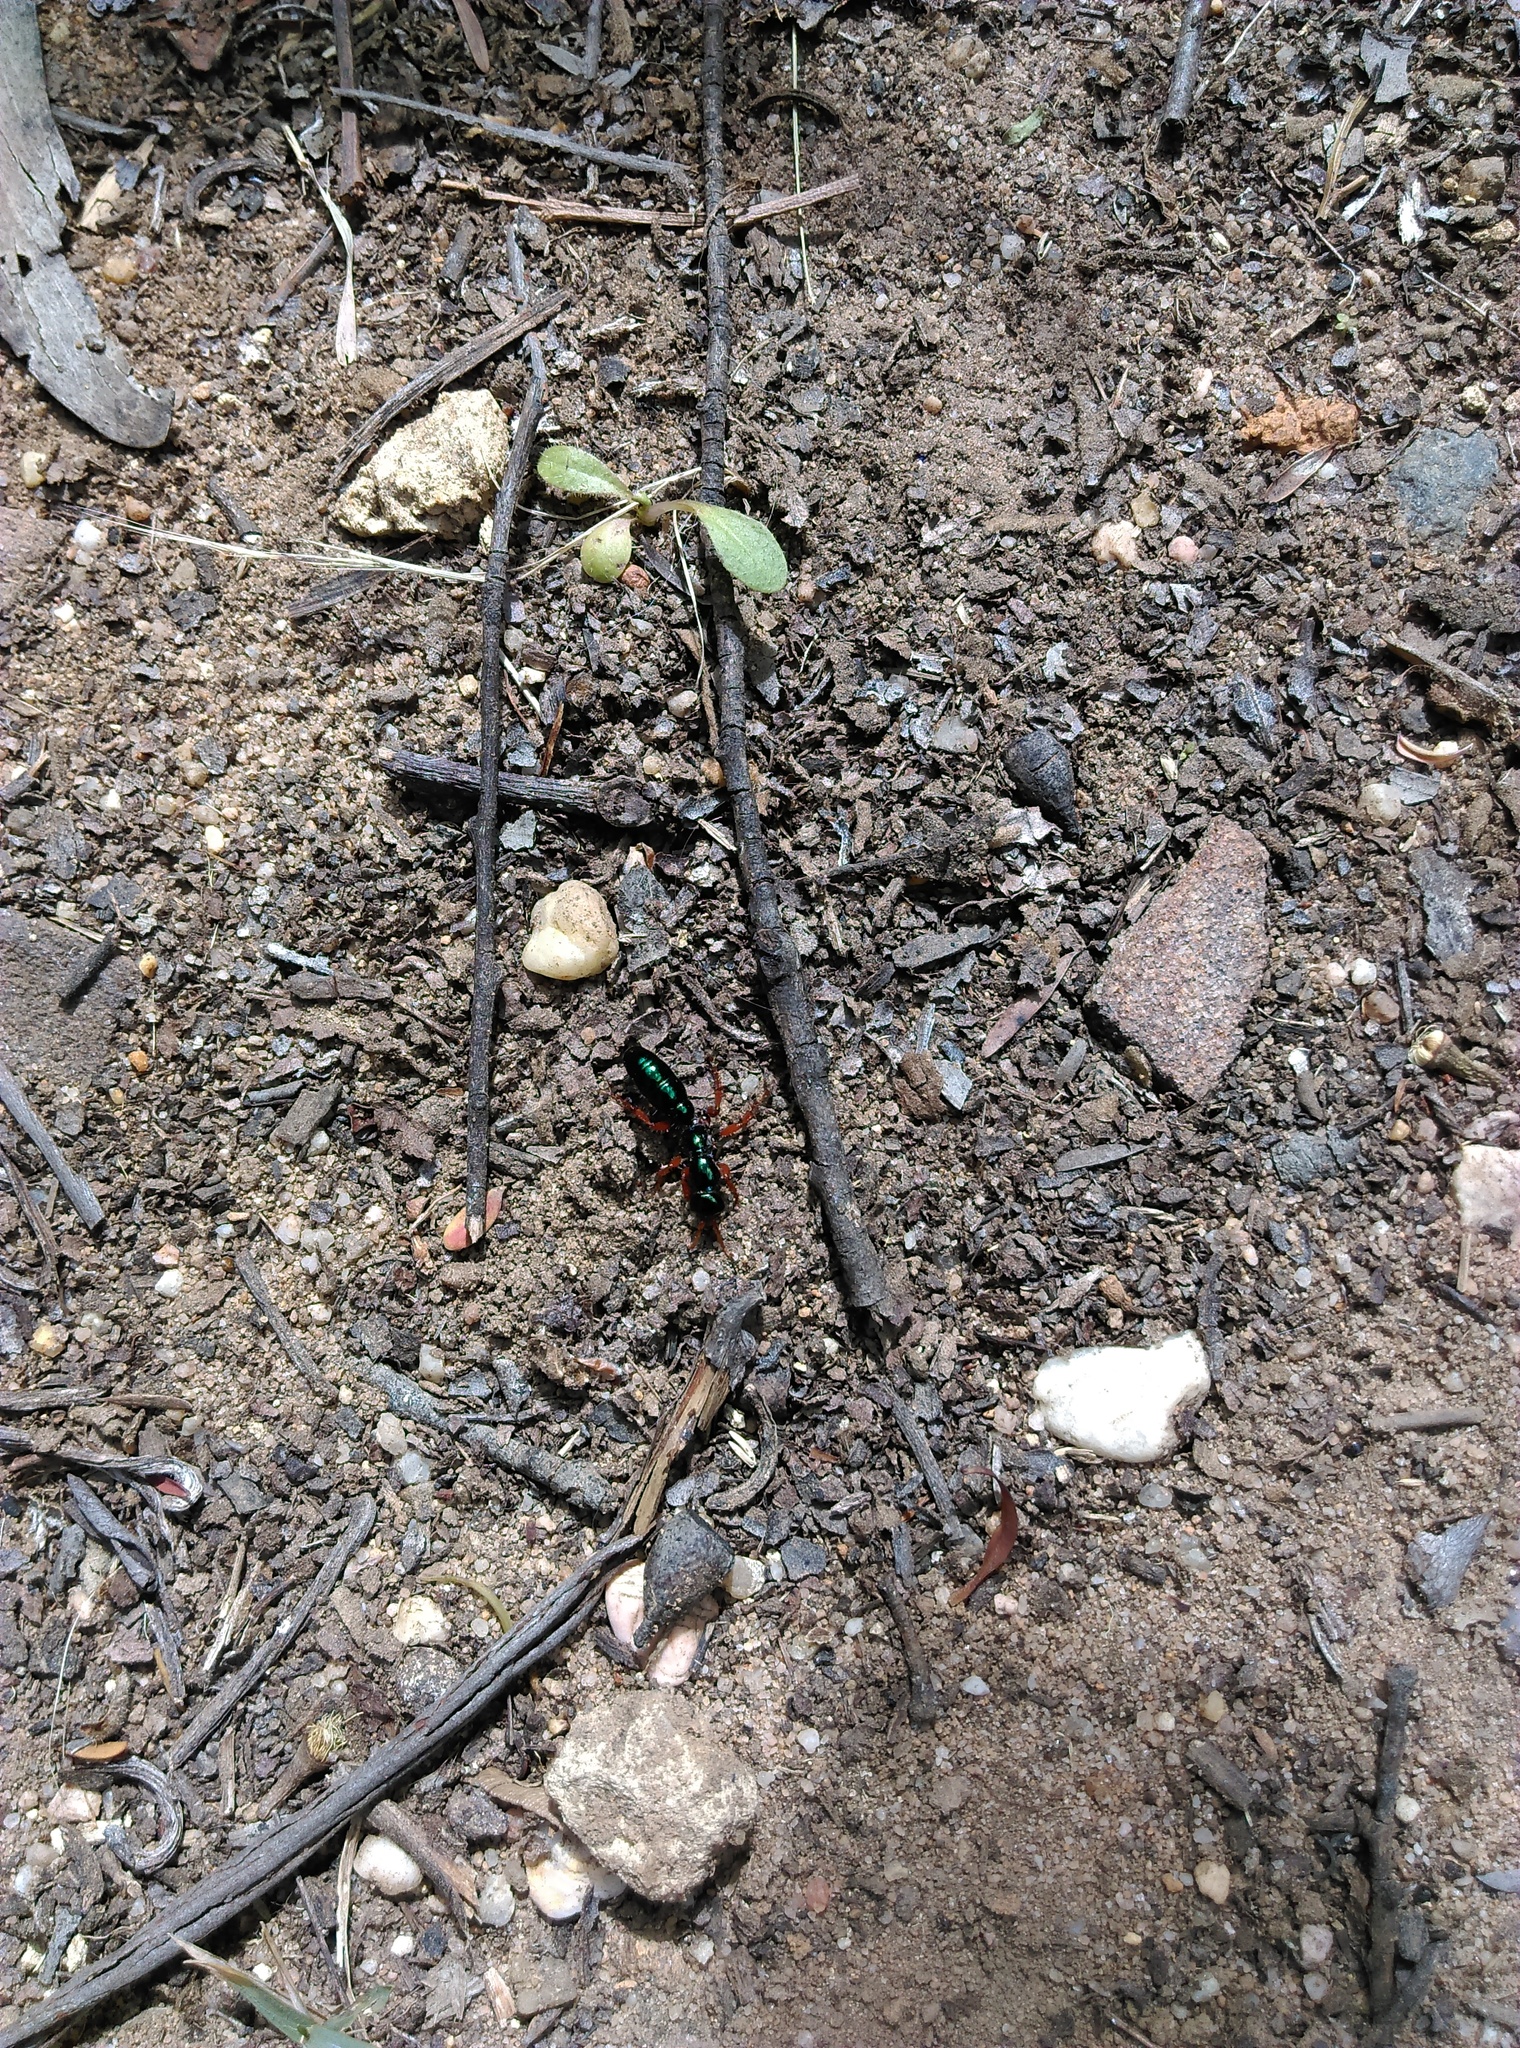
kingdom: Animalia
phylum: Arthropoda
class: Insecta
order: Hymenoptera
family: Tiphiidae
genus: Diamma
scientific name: Diamma
